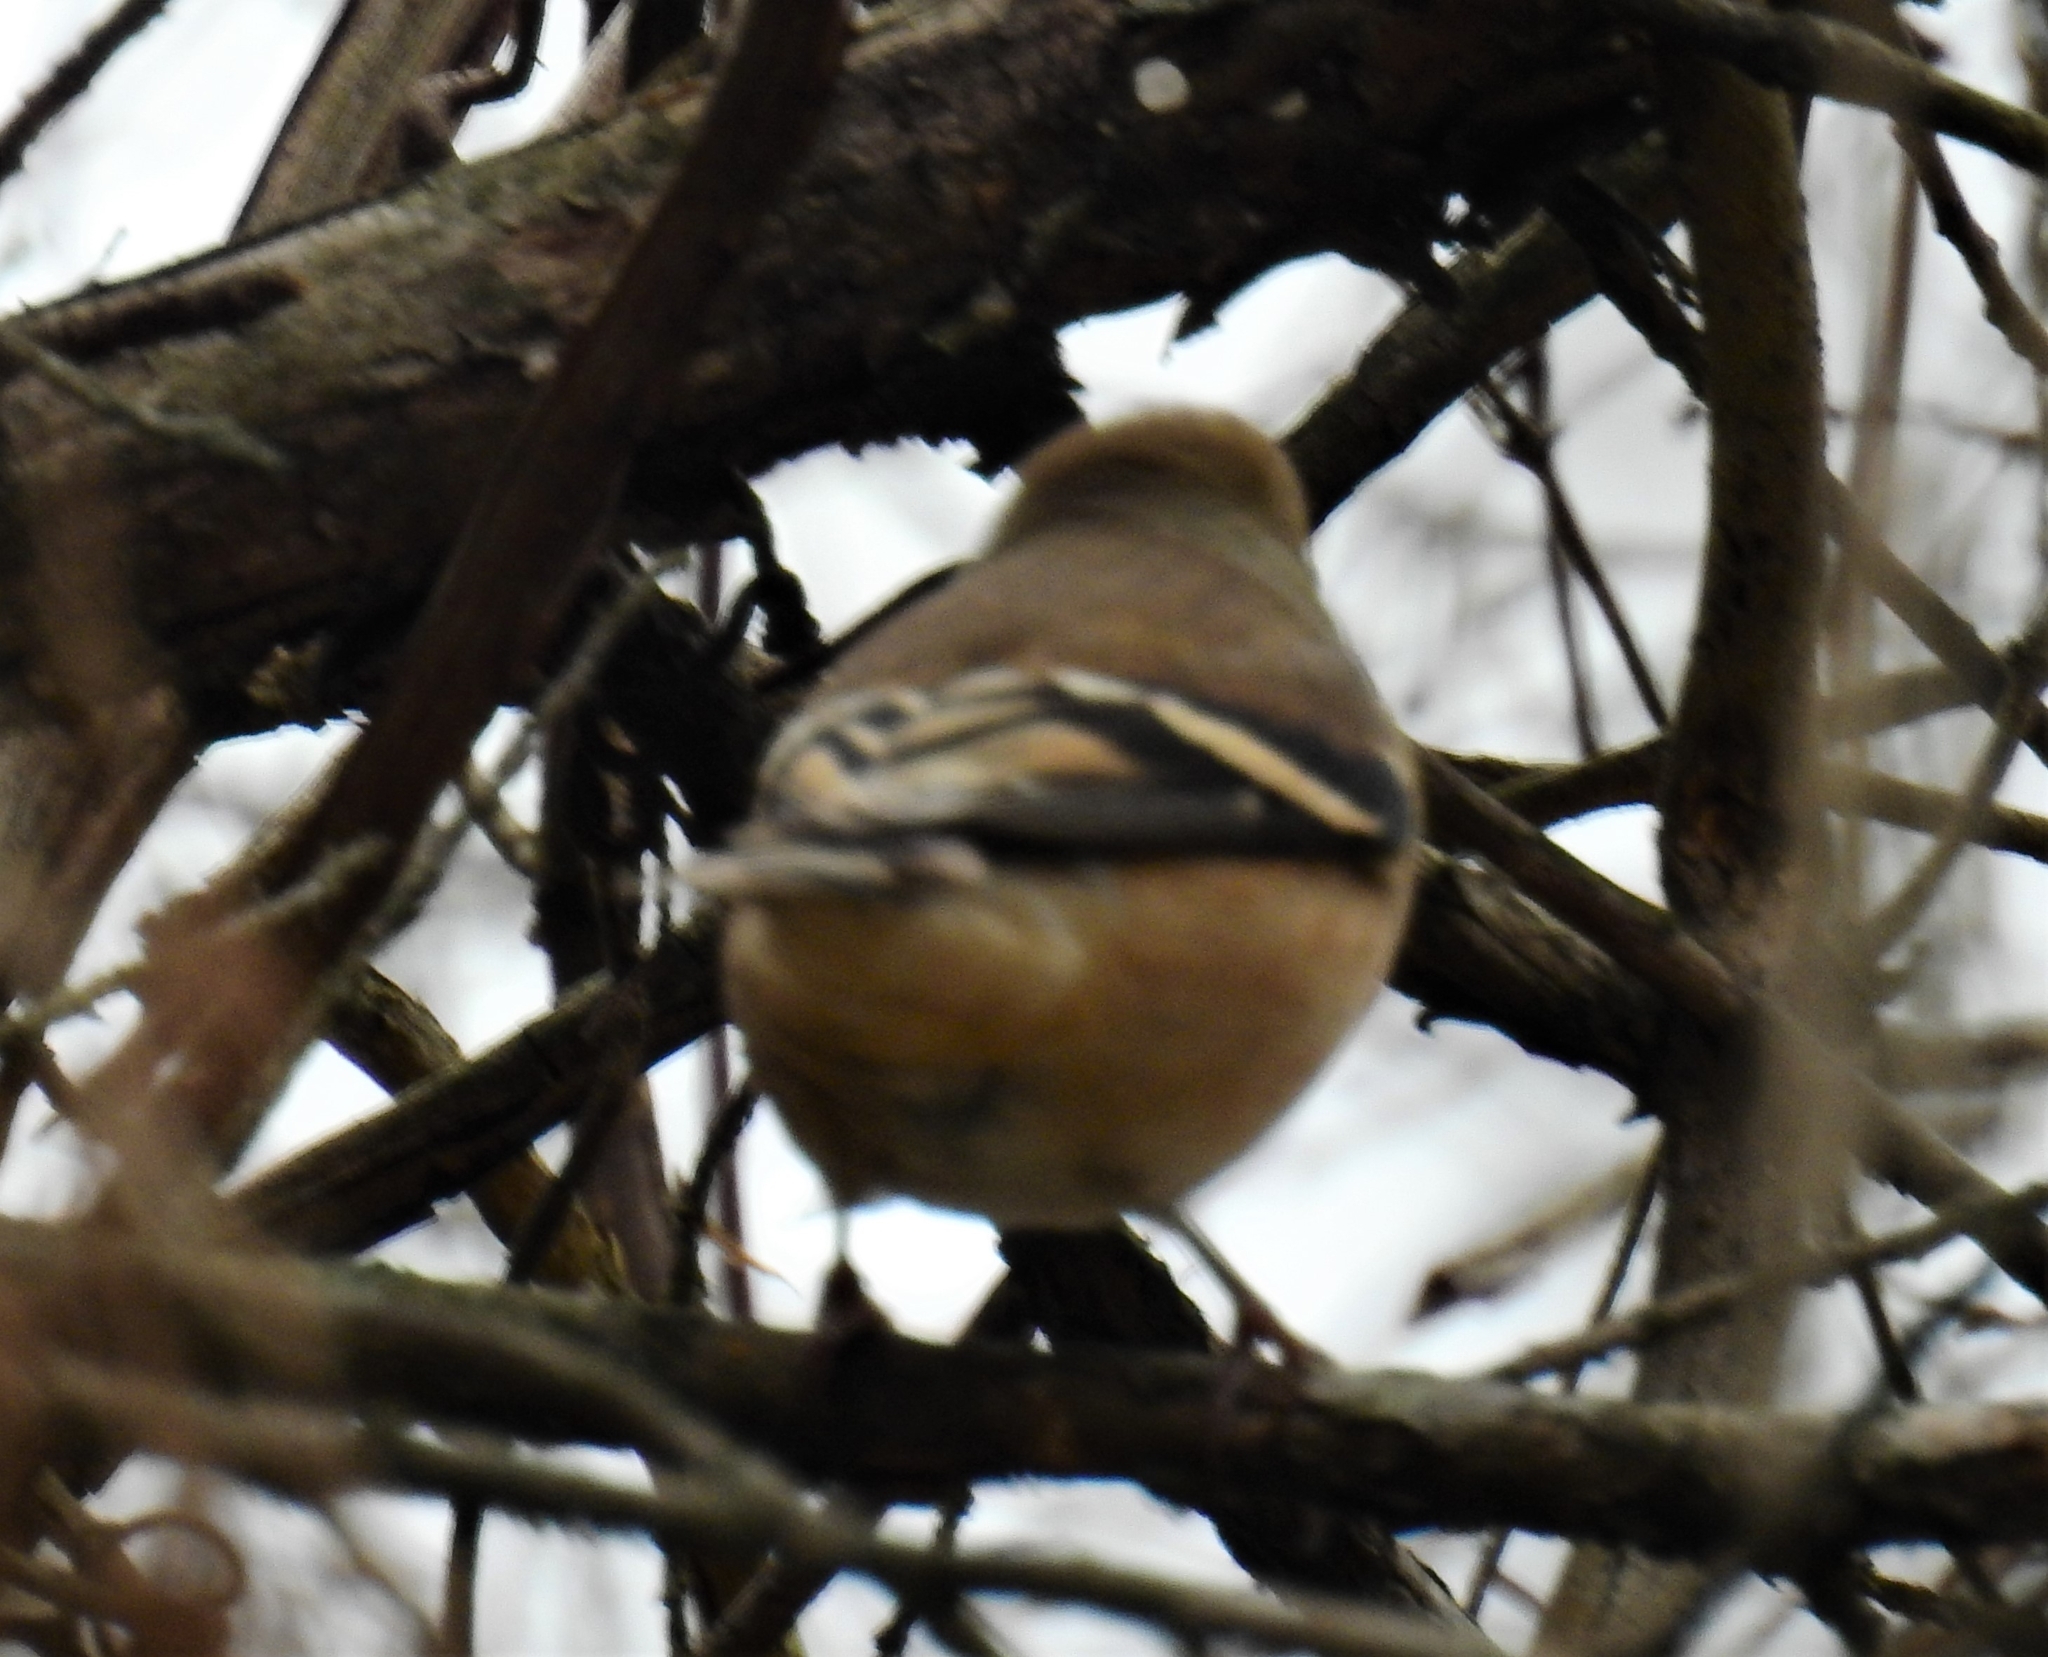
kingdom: Animalia
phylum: Chordata
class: Aves
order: Passeriformes
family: Fringillidae
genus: Spinus
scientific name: Spinus tristis
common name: American goldfinch
